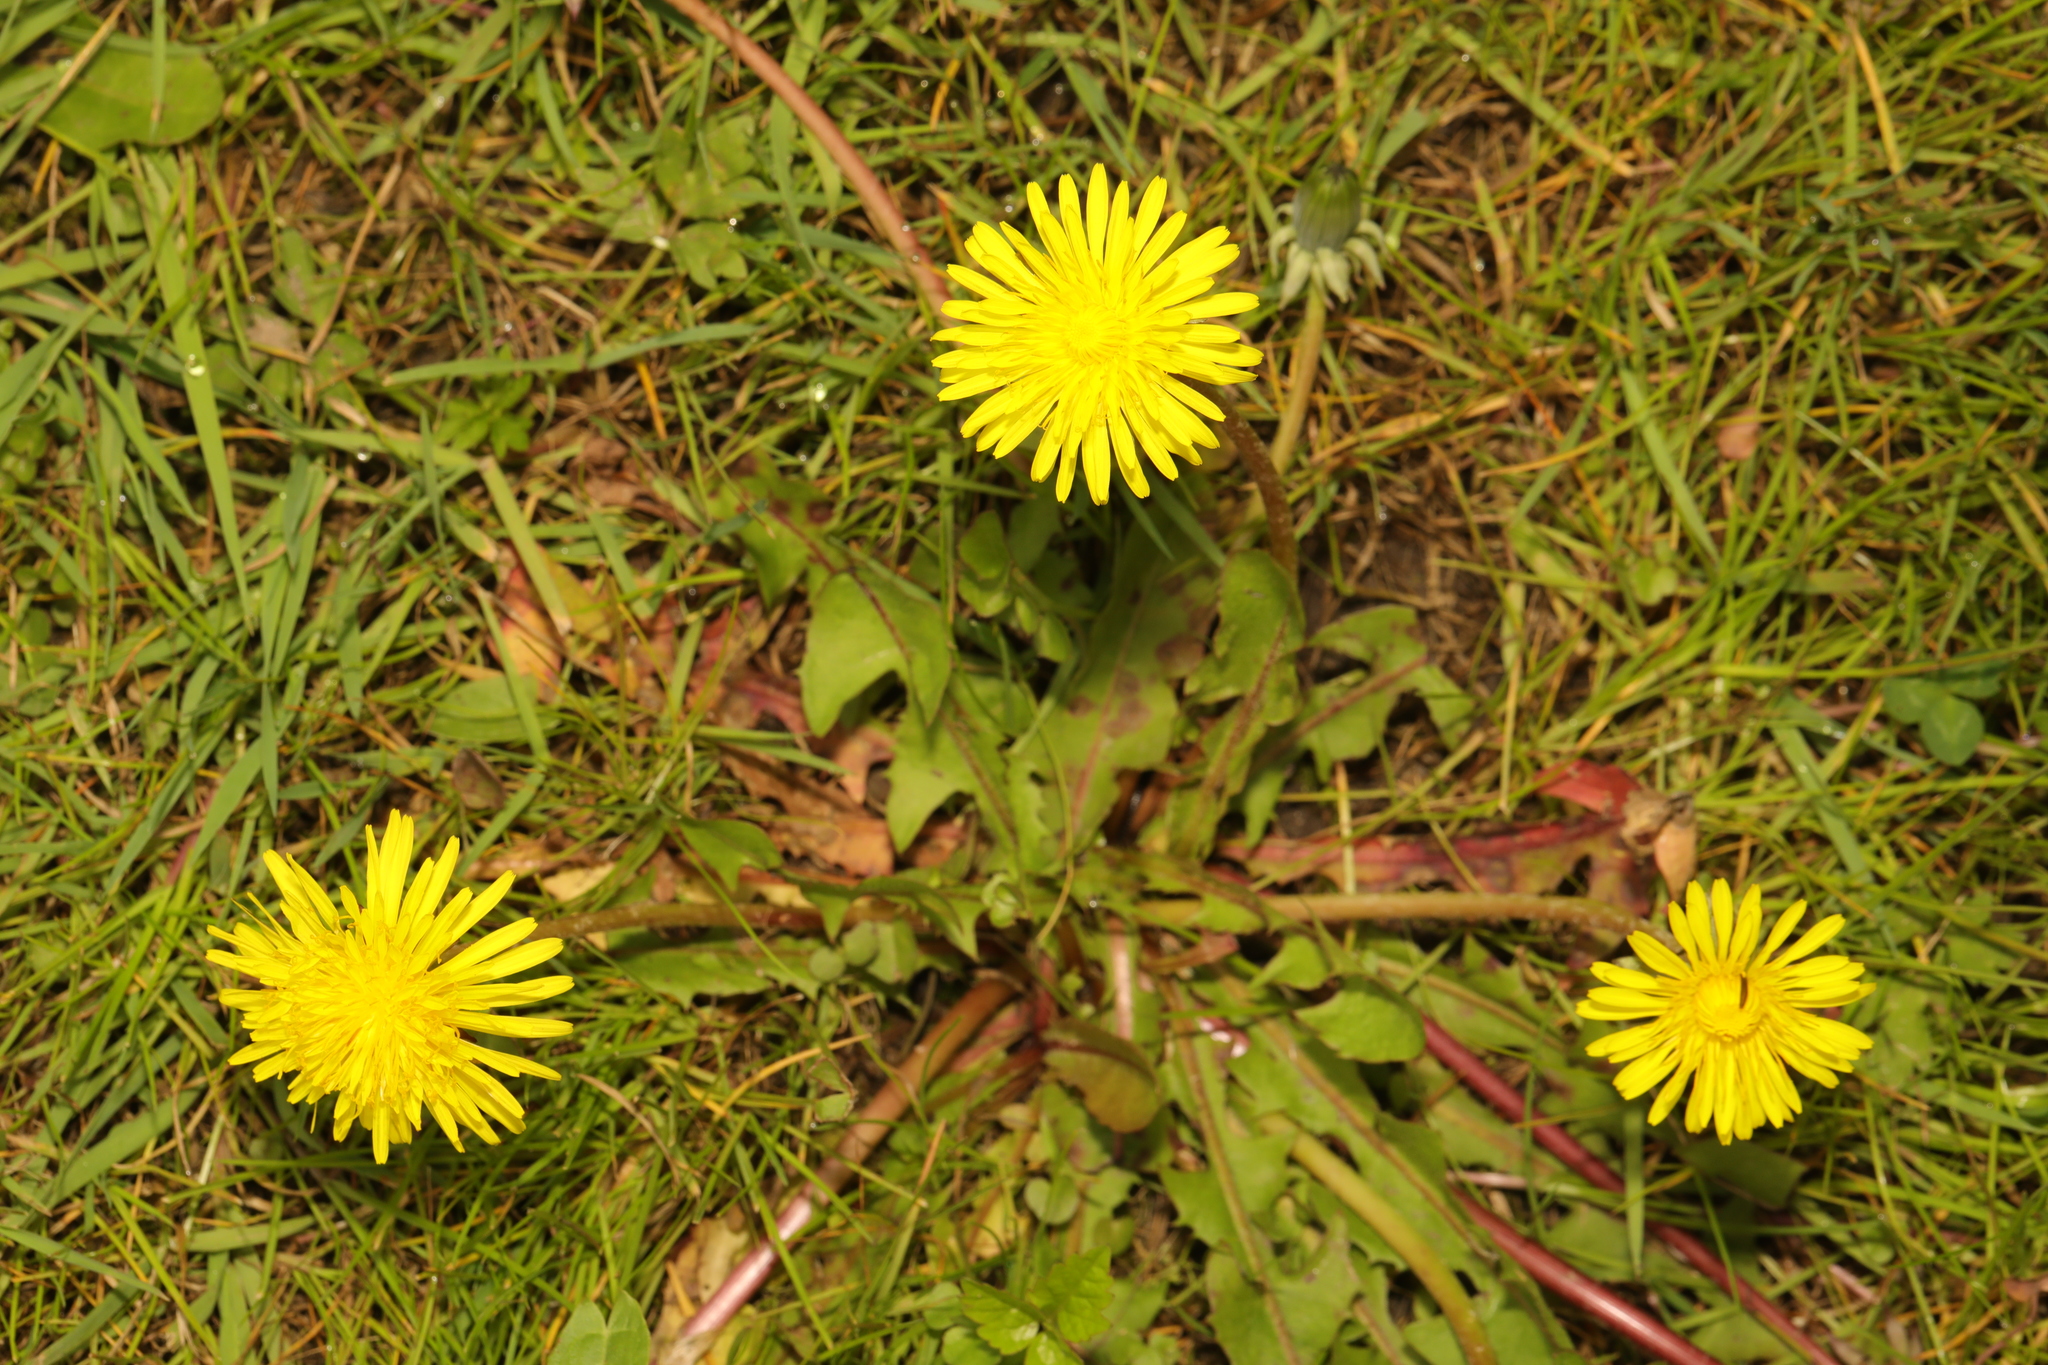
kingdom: Plantae
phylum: Tracheophyta
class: Magnoliopsida
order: Asterales
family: Asteraceae
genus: Taraxacum
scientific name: Taraxacum officinale
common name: Common dandelion
